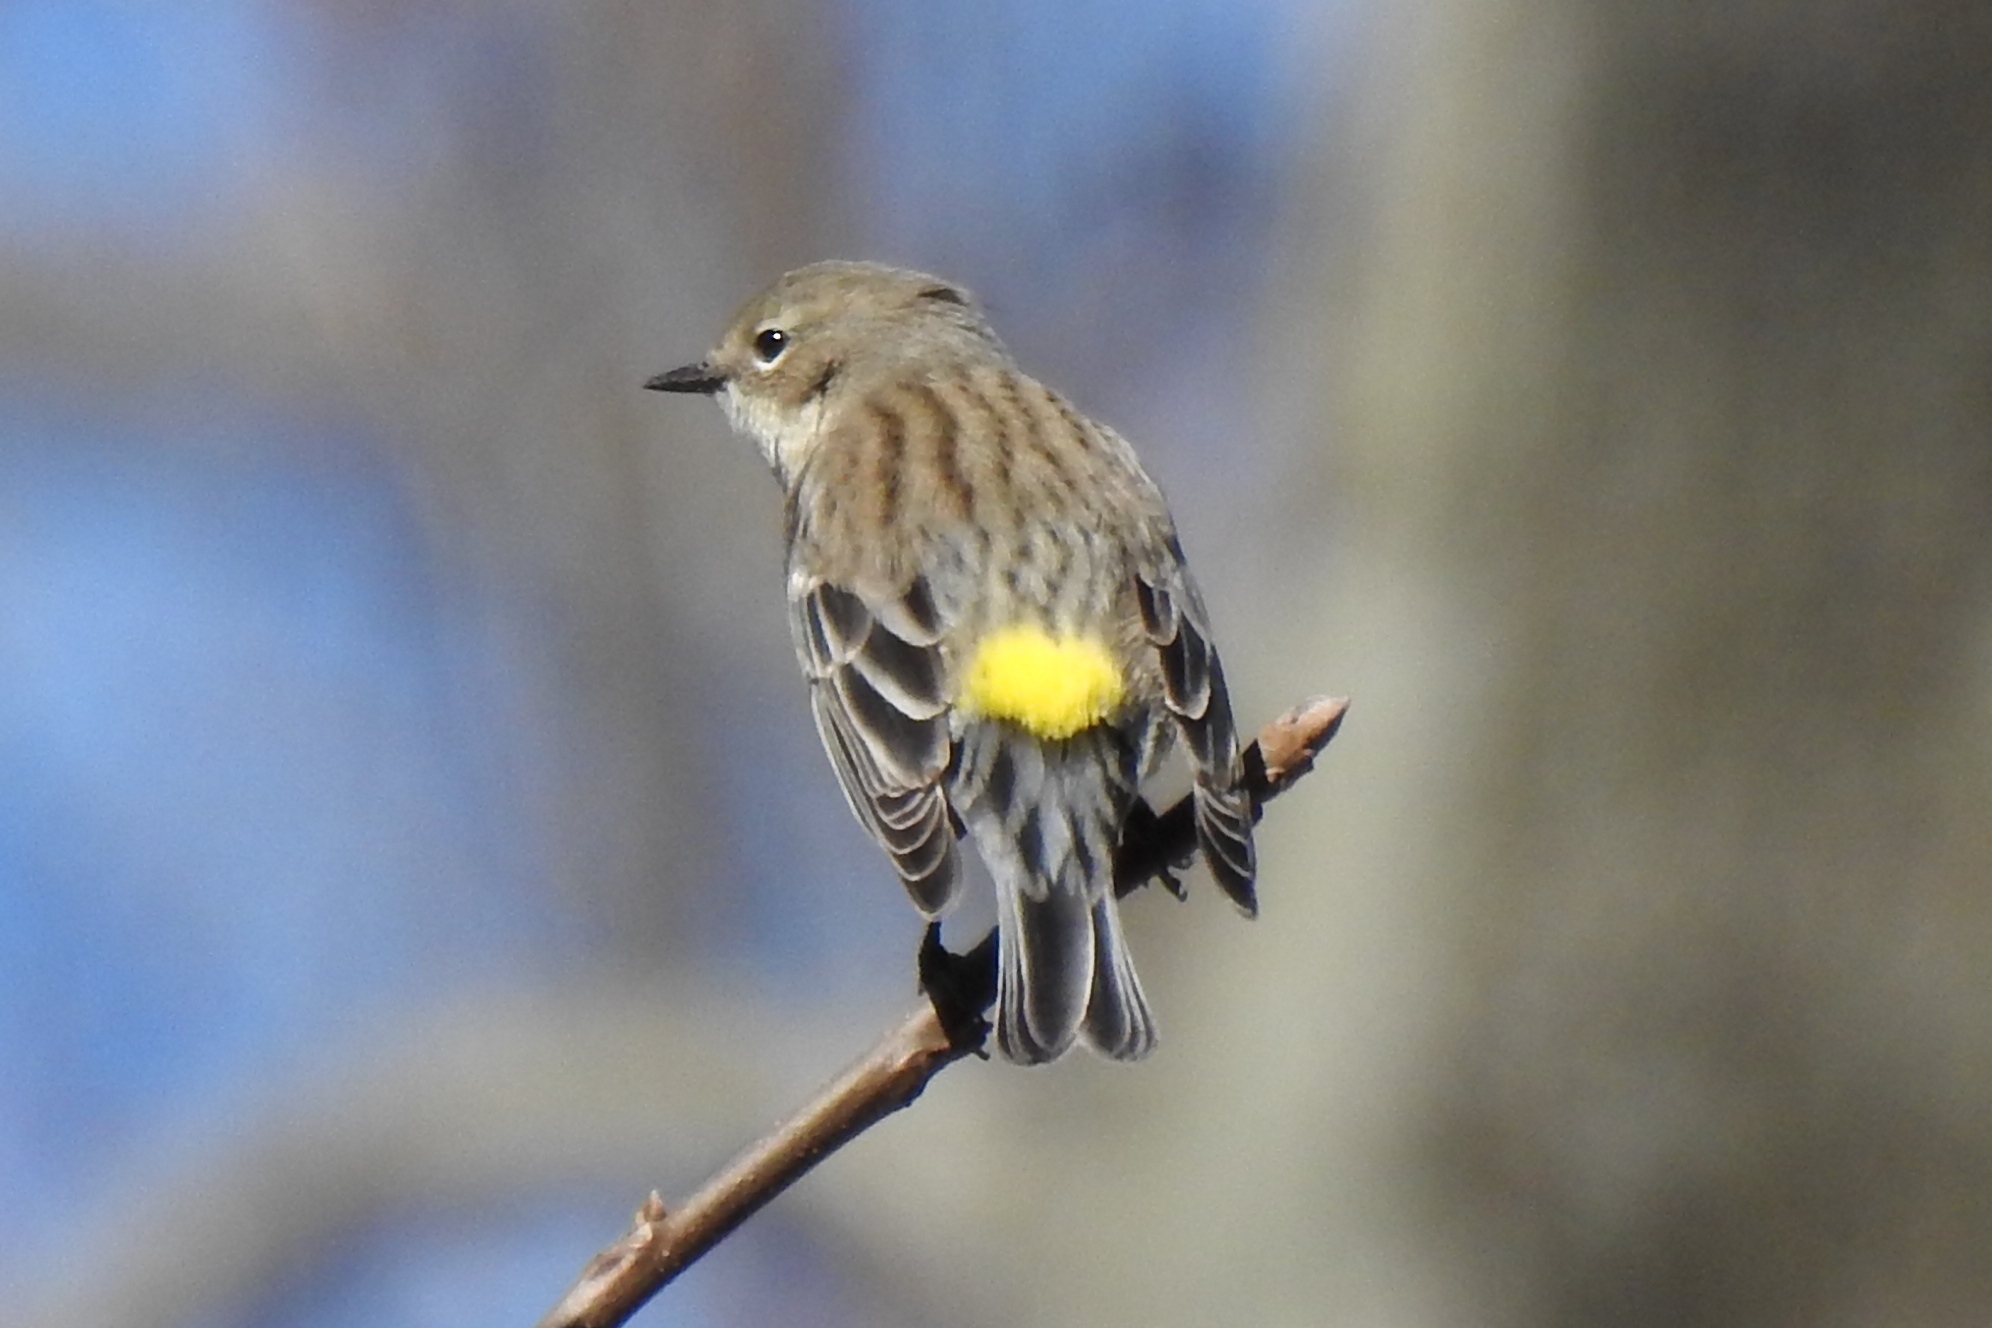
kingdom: Animalia
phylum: Chordata
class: Aves
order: Passeriformes
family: Parulidae
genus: Setophaga
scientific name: Setophaga coronata
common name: Myrtle warbler
